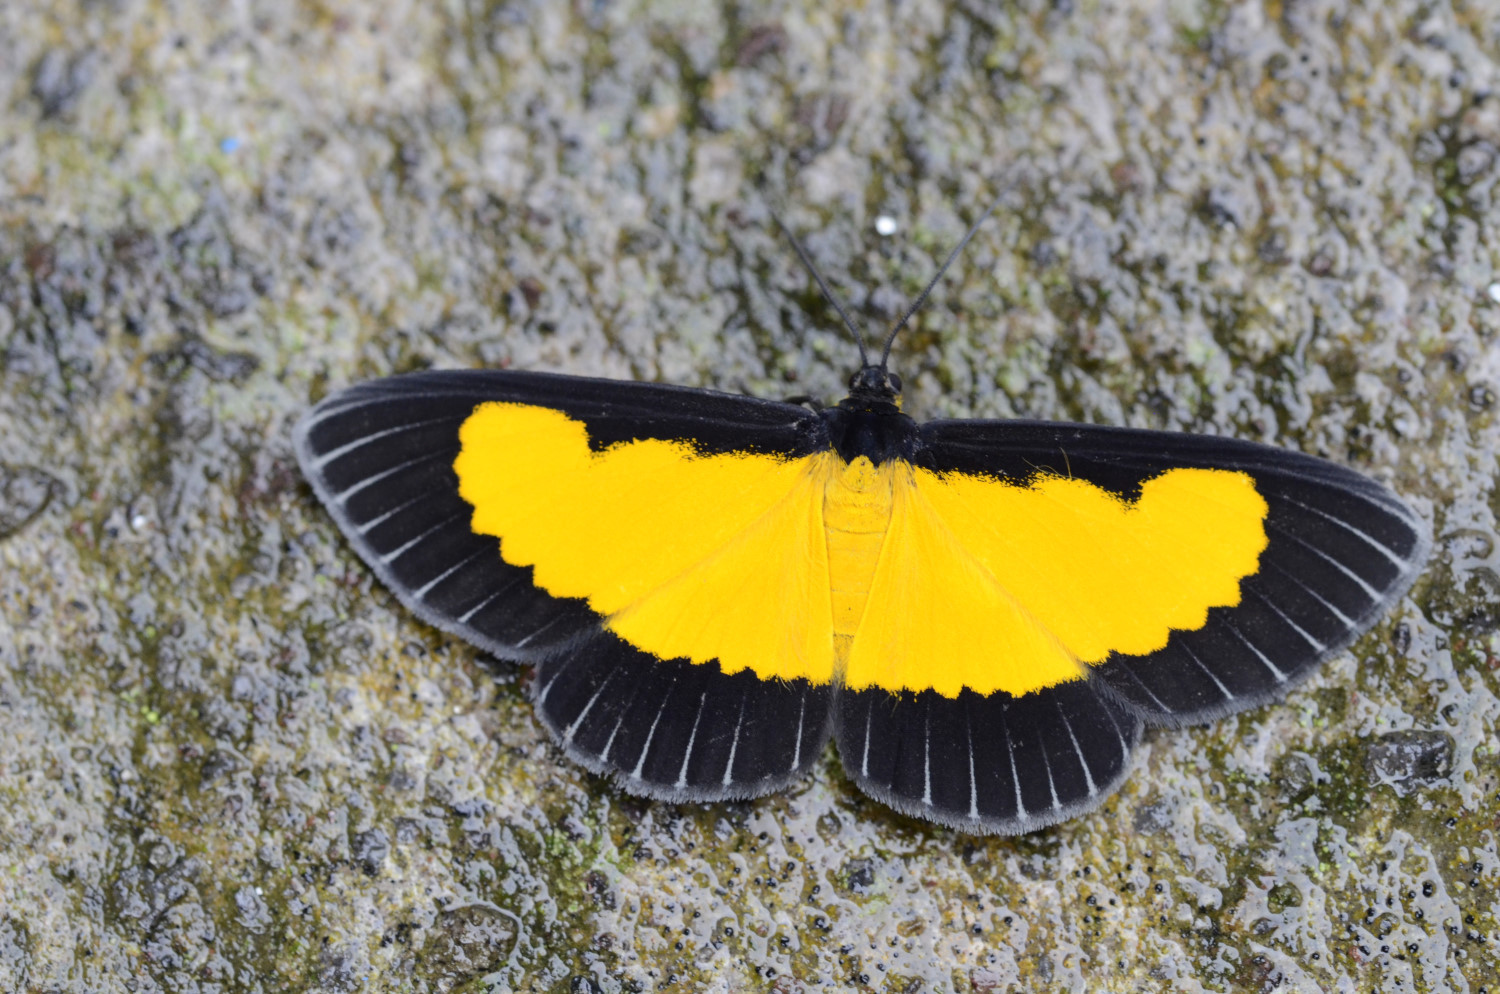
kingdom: Animalia
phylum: Arthropoda
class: Insecta
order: Lepidoptera
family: Geometridae
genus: Xanthyris
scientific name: Xanthyris flaveolata
